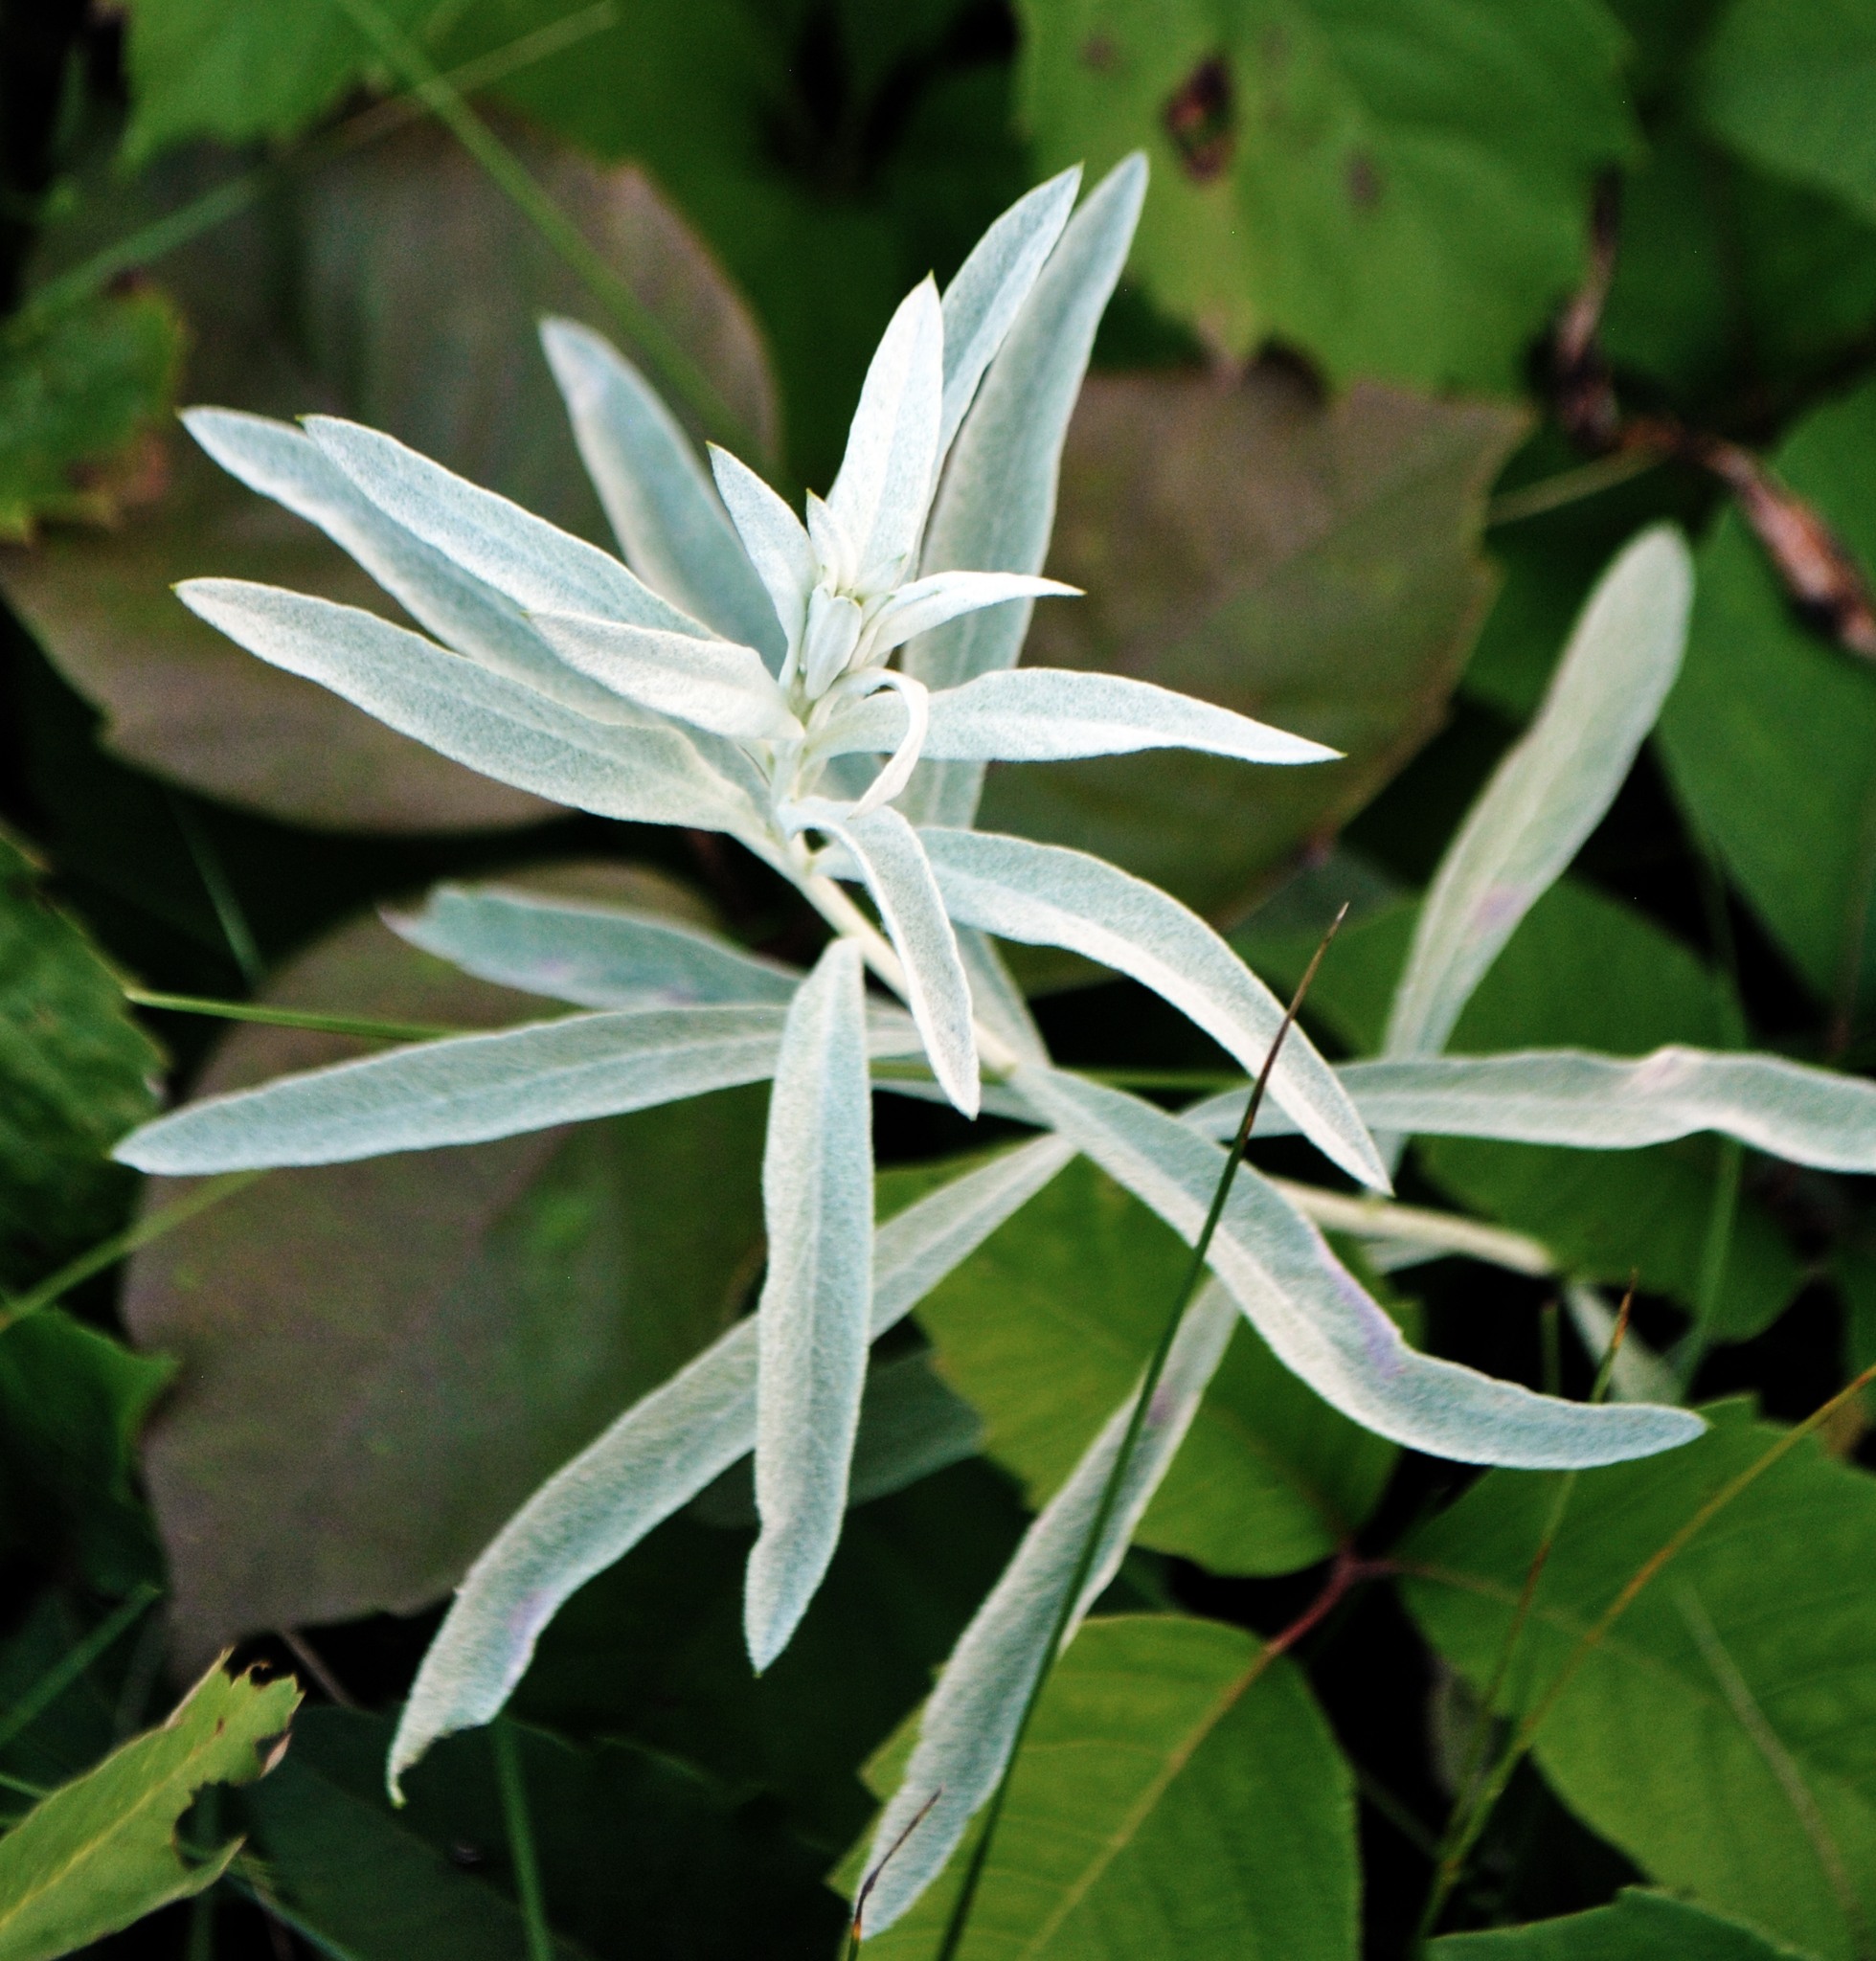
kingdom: Plantae
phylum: Tracheophyta
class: Magnoliopsida
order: Asterales
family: Asteraceae
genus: Artemisia
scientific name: Artemisia ludoviciana
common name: Western mugwort
